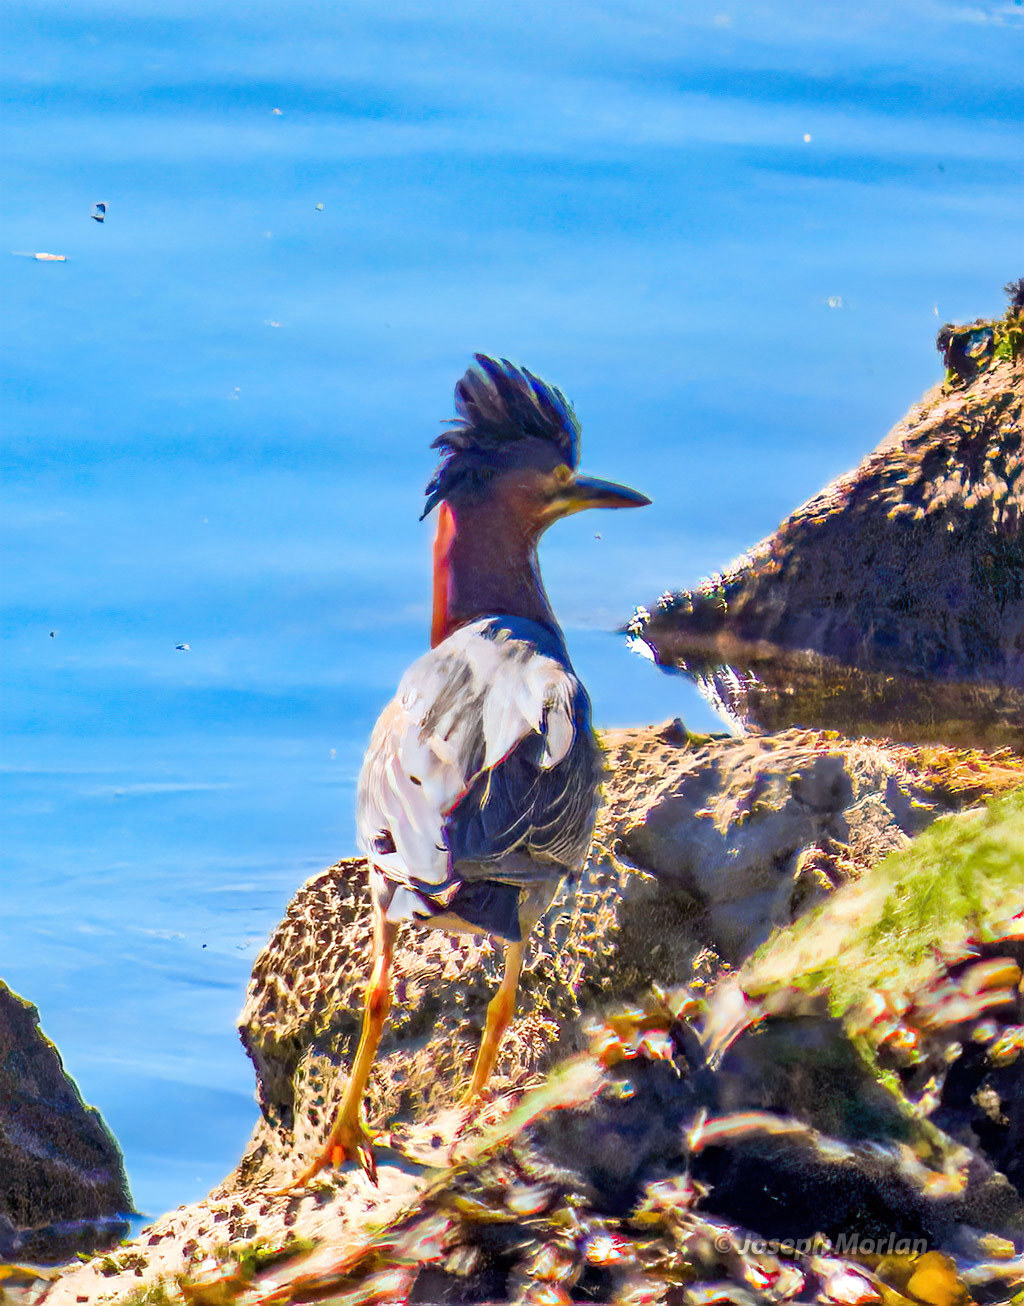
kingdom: Animalia
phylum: Chordata
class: Aves
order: Pelecaniformes
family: Ardeidae
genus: Butorides
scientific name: Butorides virescens
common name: Green heron
